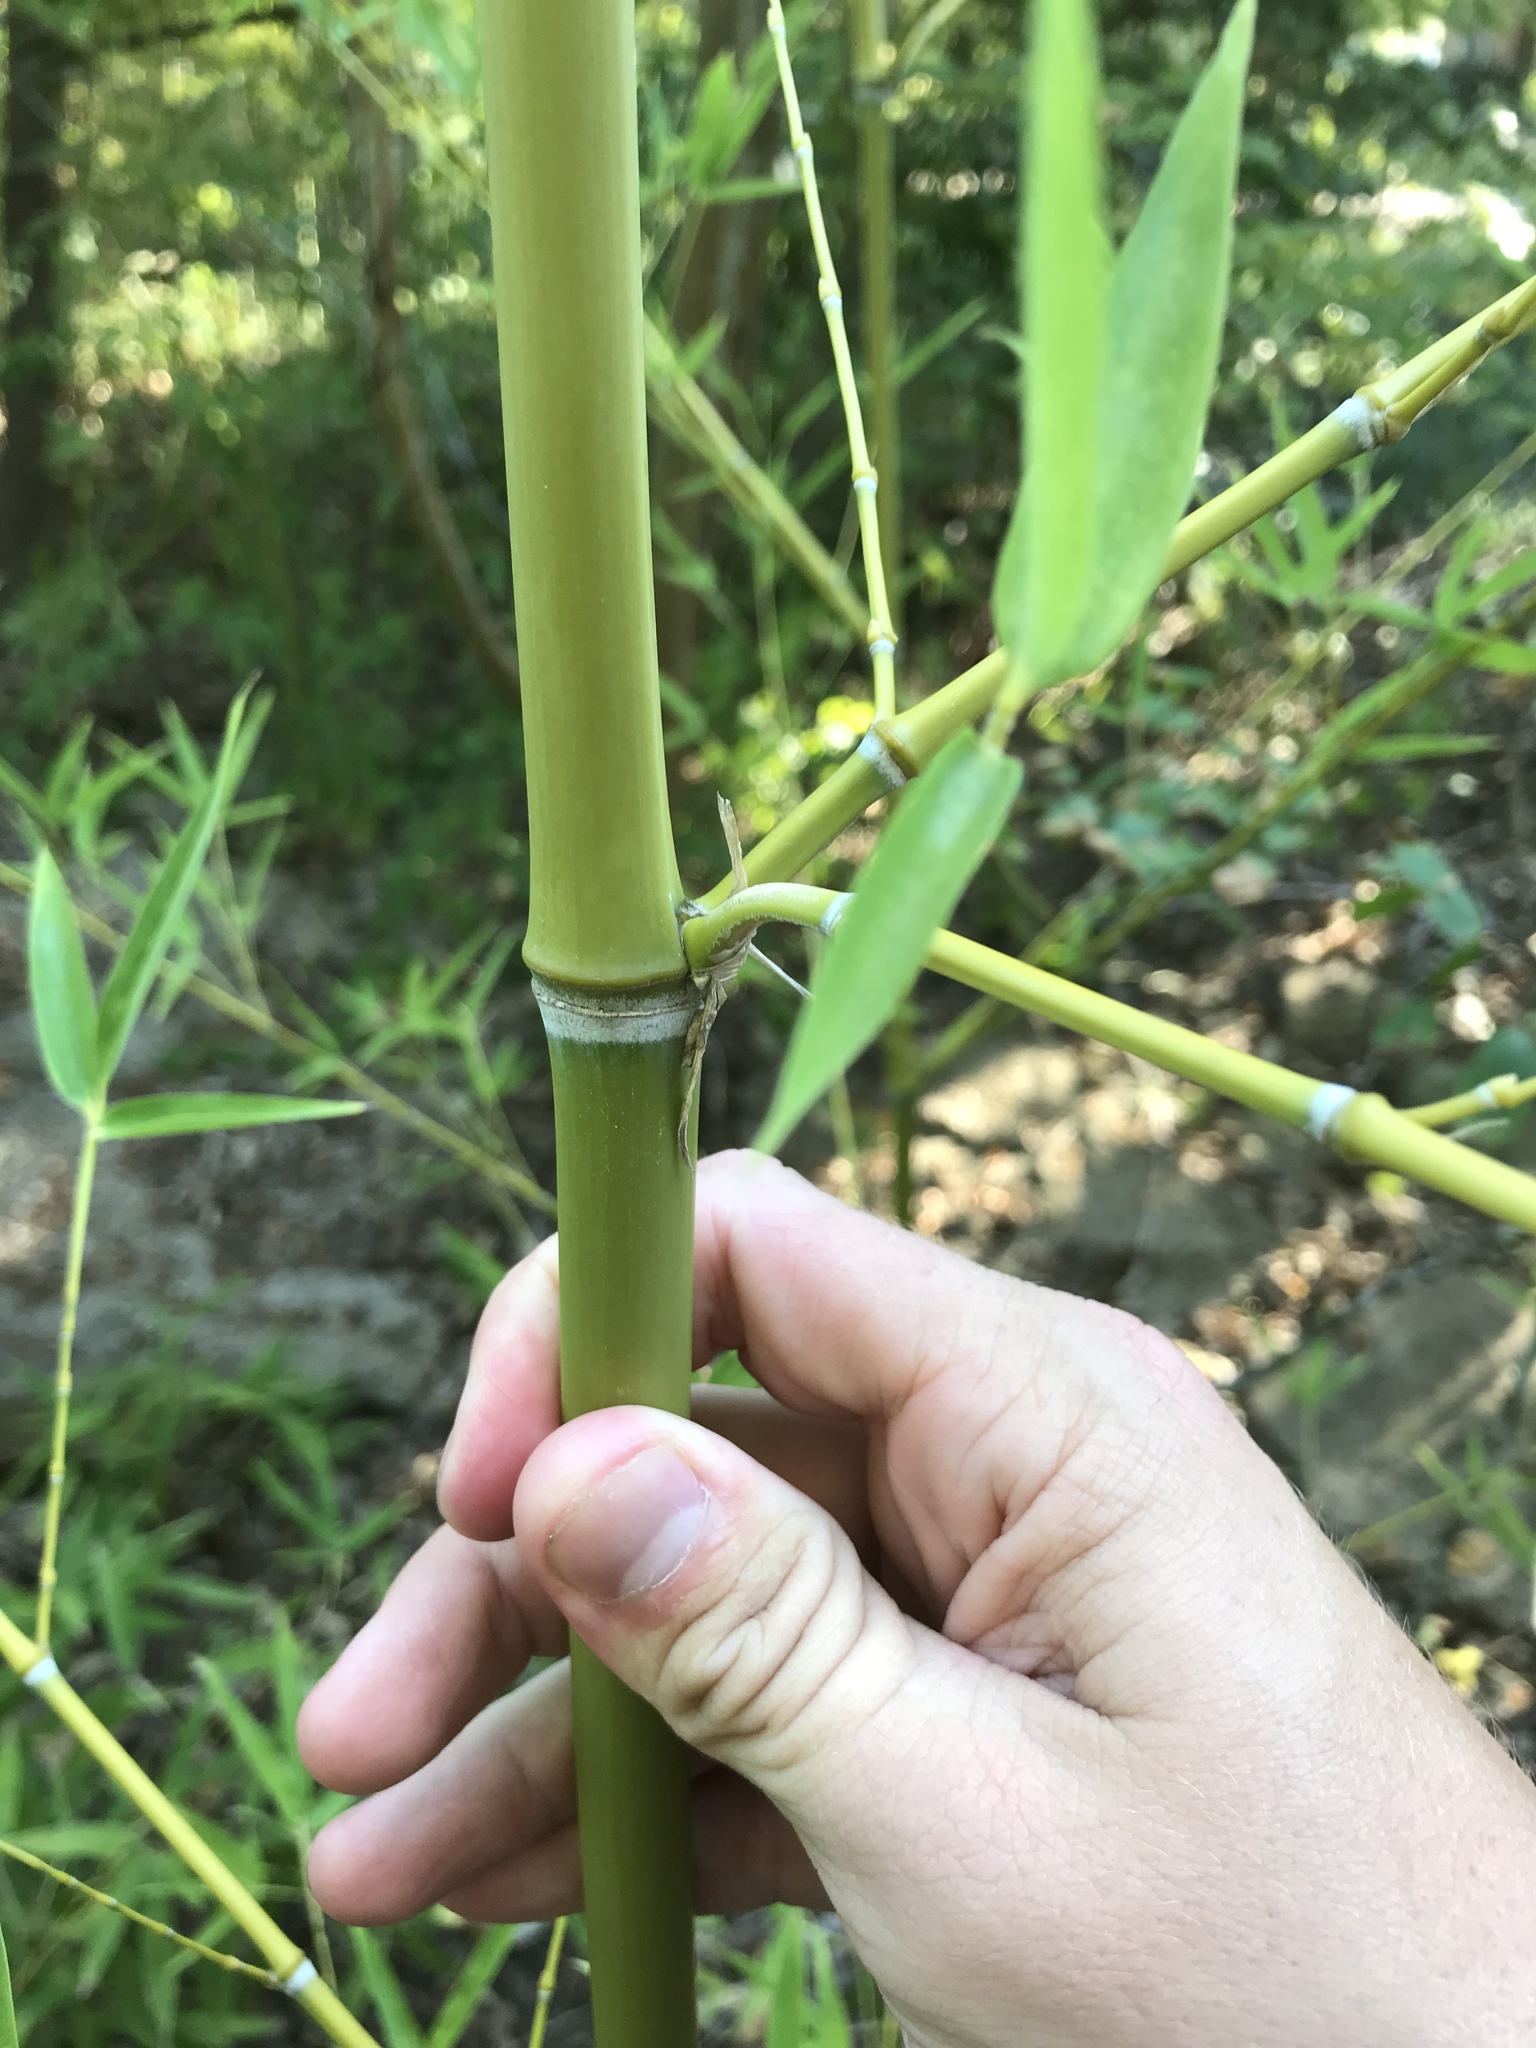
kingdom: Plantae
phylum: Tracheophyta
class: Liliopsida
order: Poales
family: Poaceae
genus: Phyllostachys
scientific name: Phyllostachys aurea
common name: Golden bamboo
